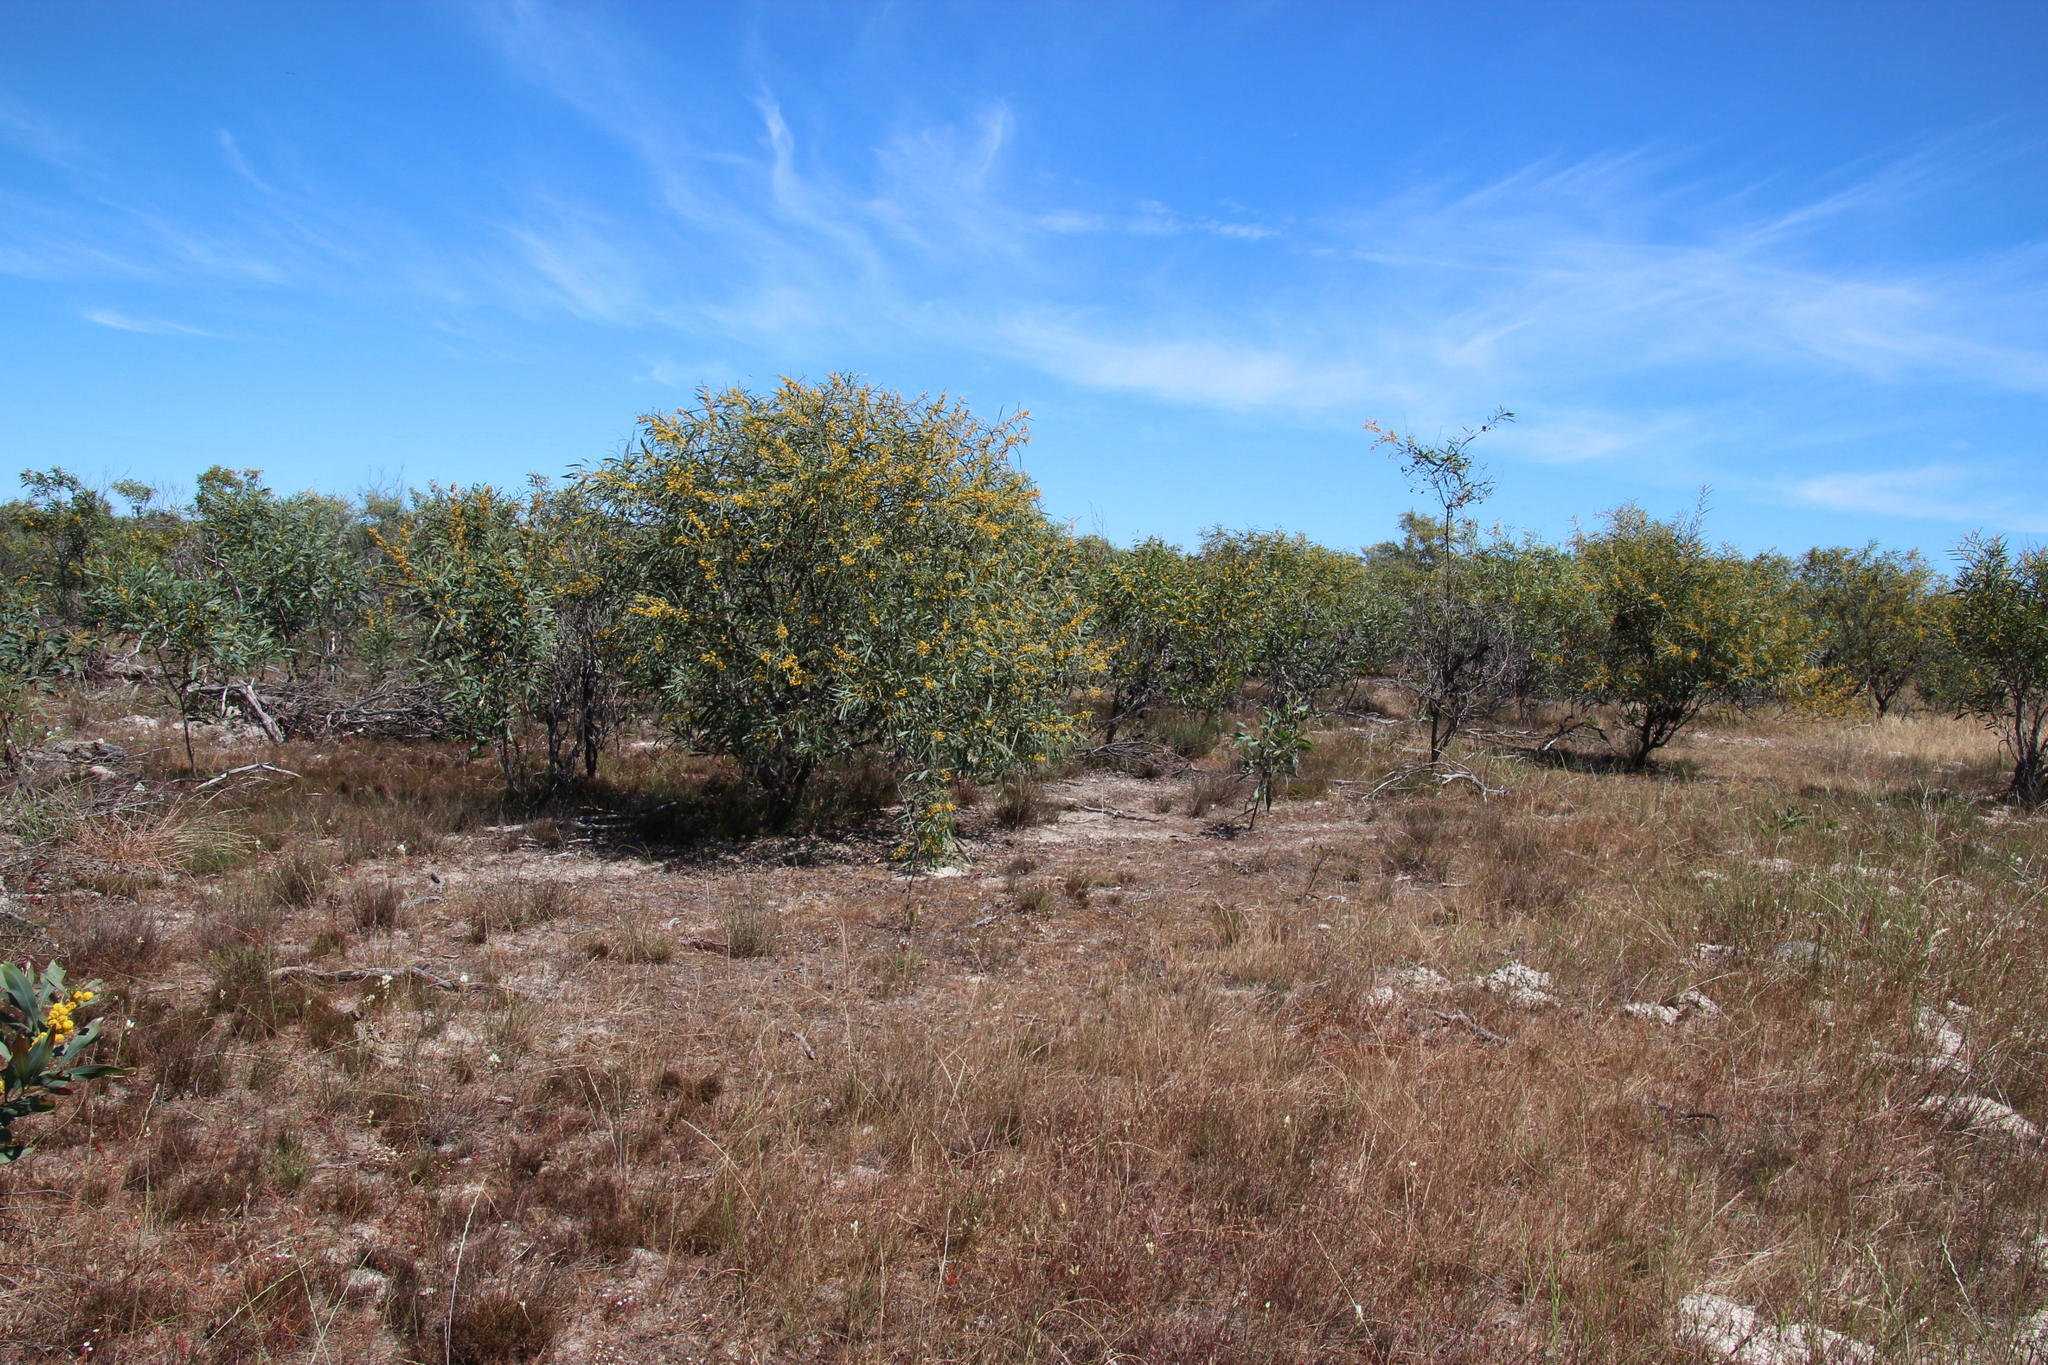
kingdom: Plantae
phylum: Tracheophyta
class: Magnoliopsida
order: Fabales
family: Fabaceae
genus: Acacia
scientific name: Acacia saligna
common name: Orange wattle
